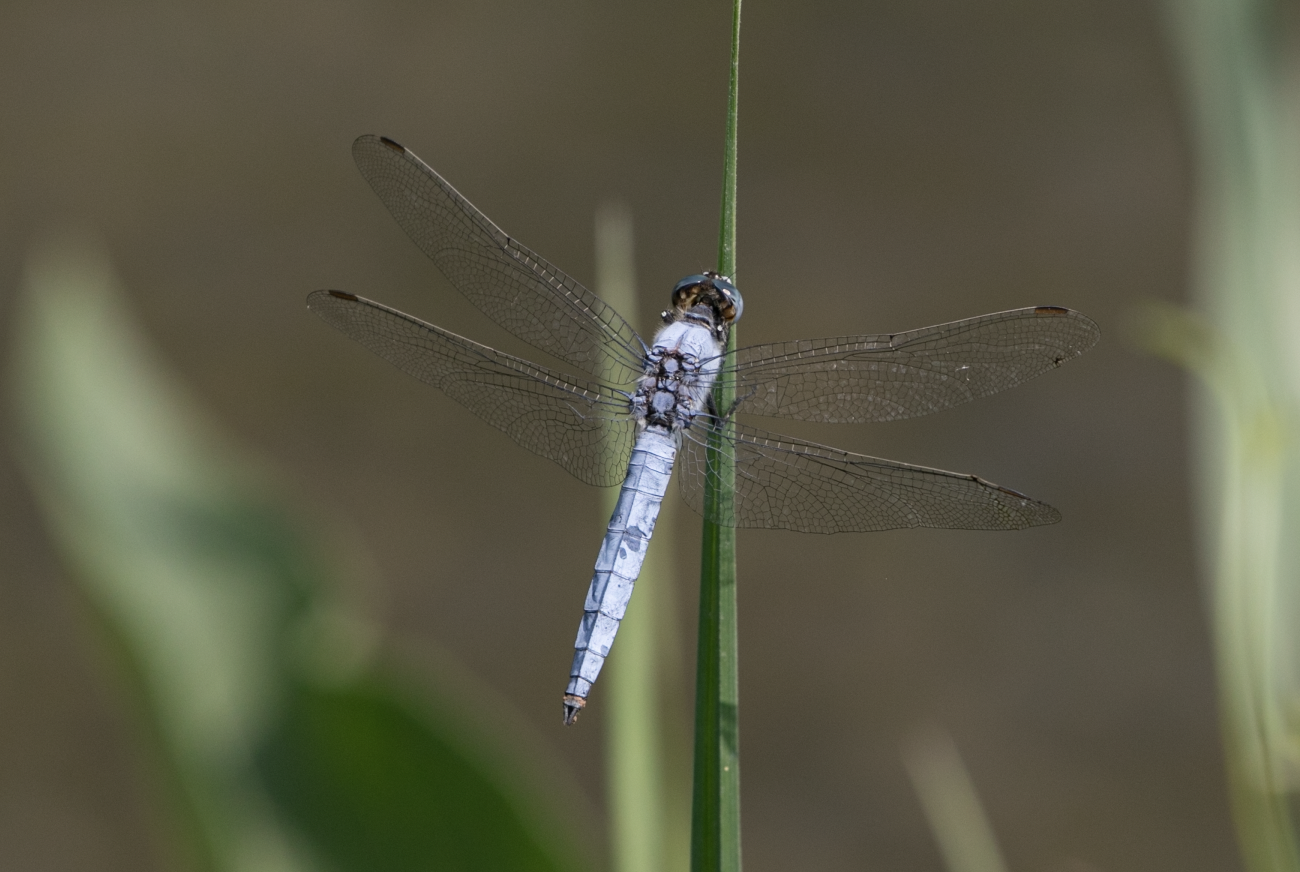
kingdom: Animalia
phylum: Arthropoda
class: Insecta
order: Odonata
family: Libellulidae
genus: Orthetrum
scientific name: Orthetrum brunneum
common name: Southern skimmer
